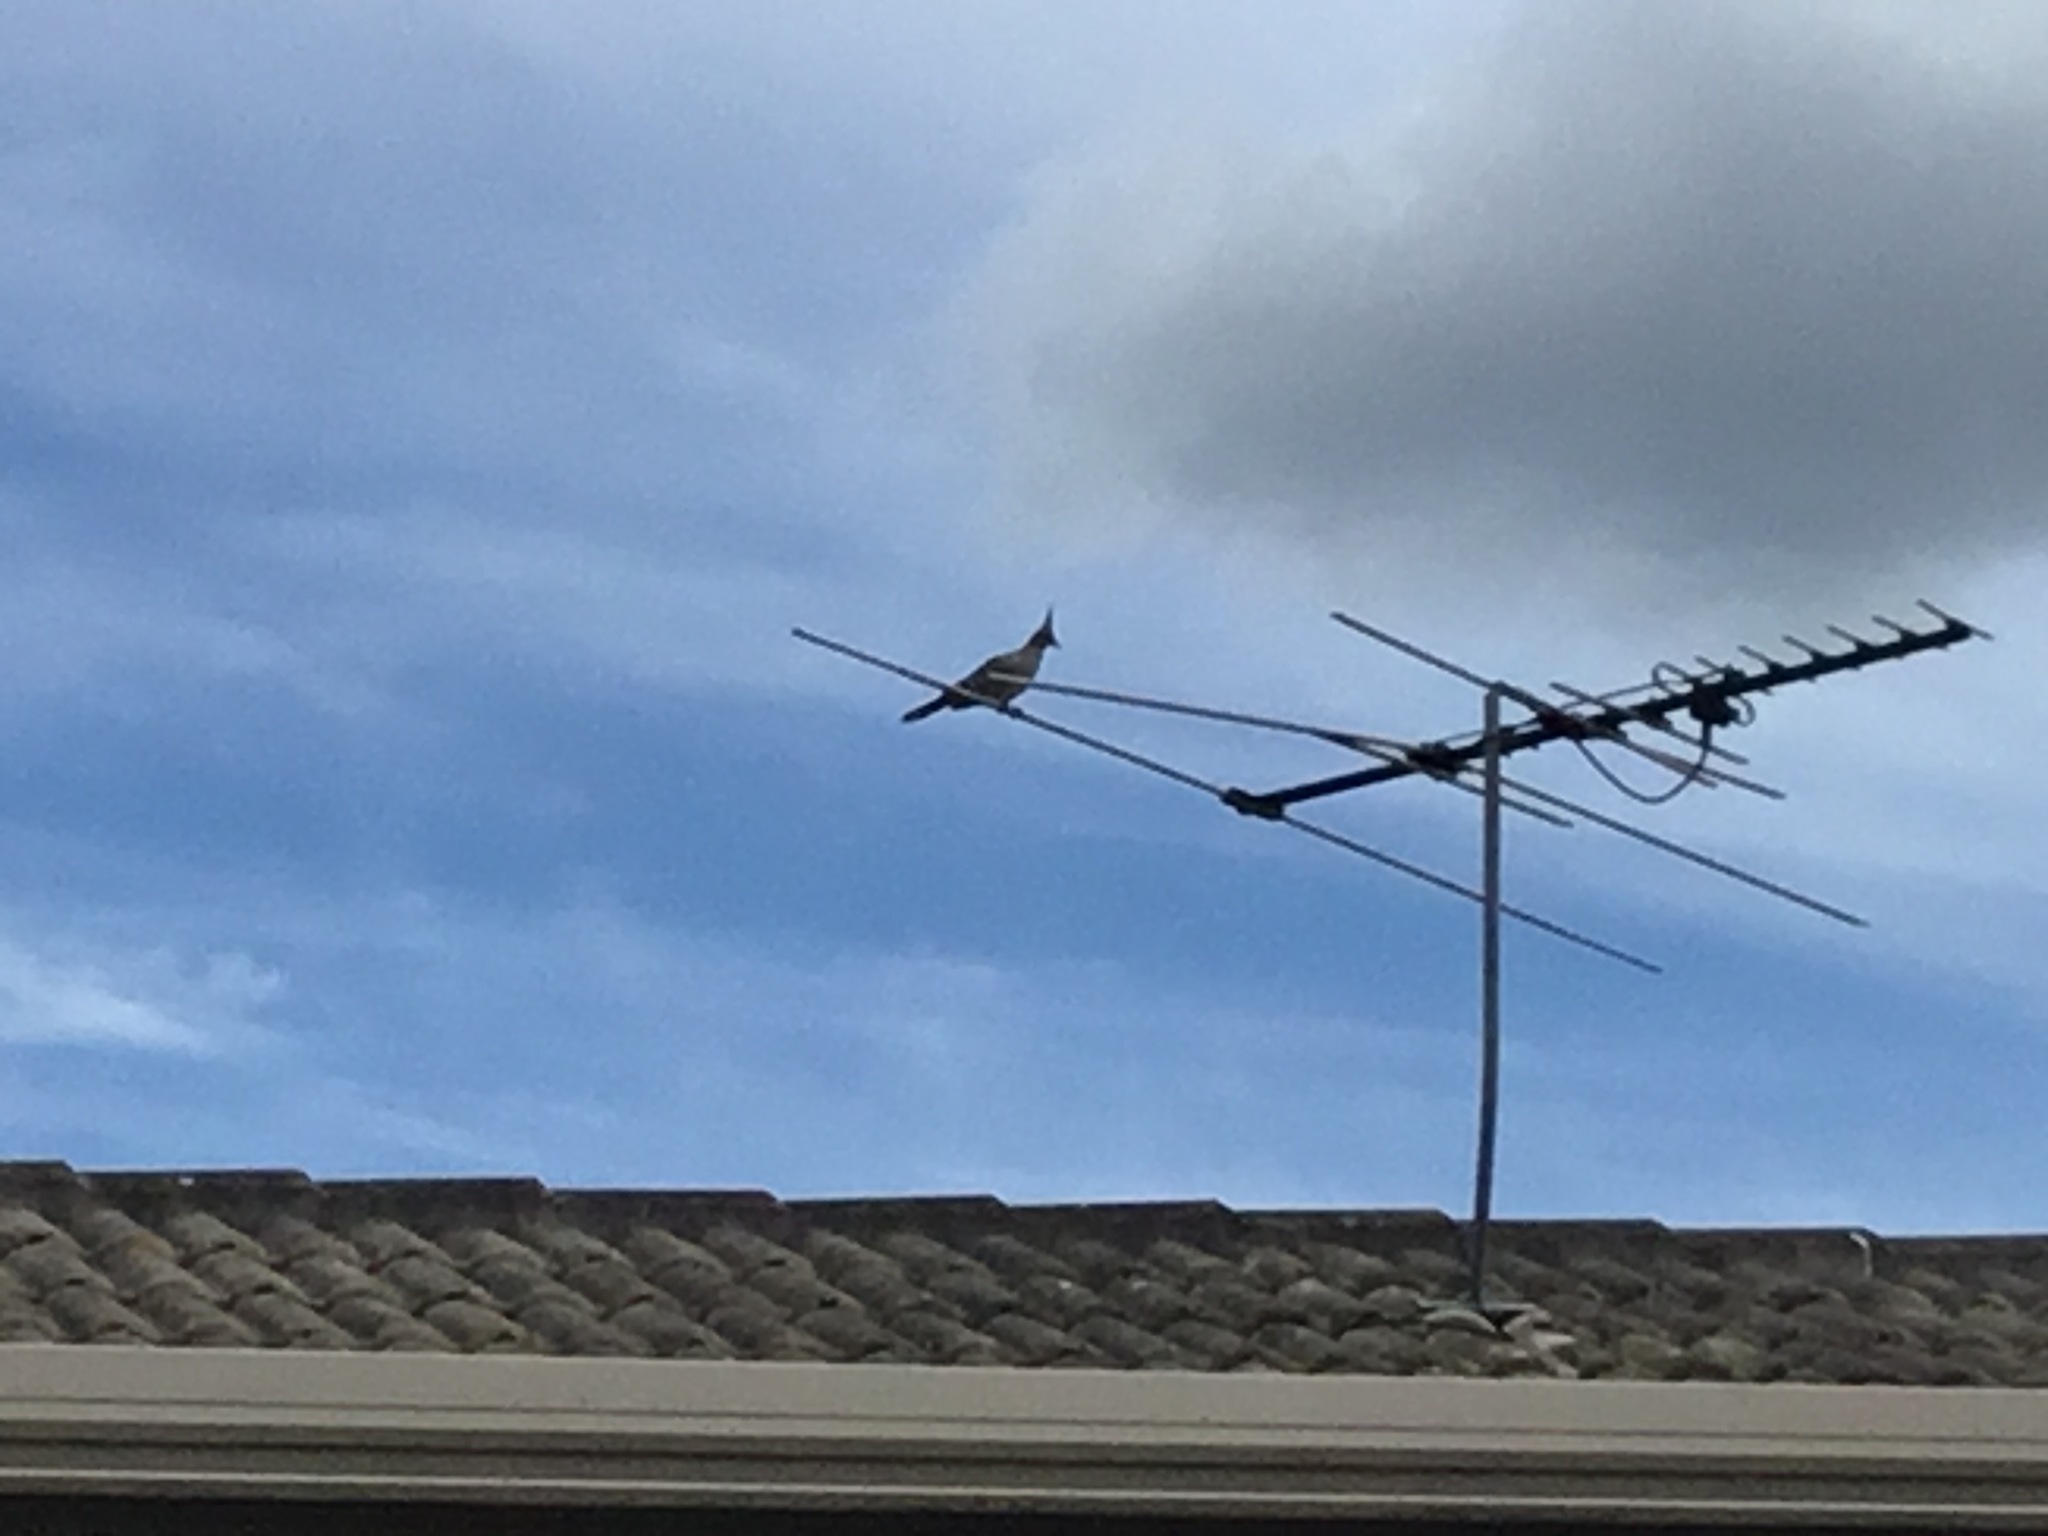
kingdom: Animalia
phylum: Chordata
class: Aves
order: Columbiformes
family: Columbidae
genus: Ocyphaps
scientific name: Ocyphaps lophotes
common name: Crested pigeon
